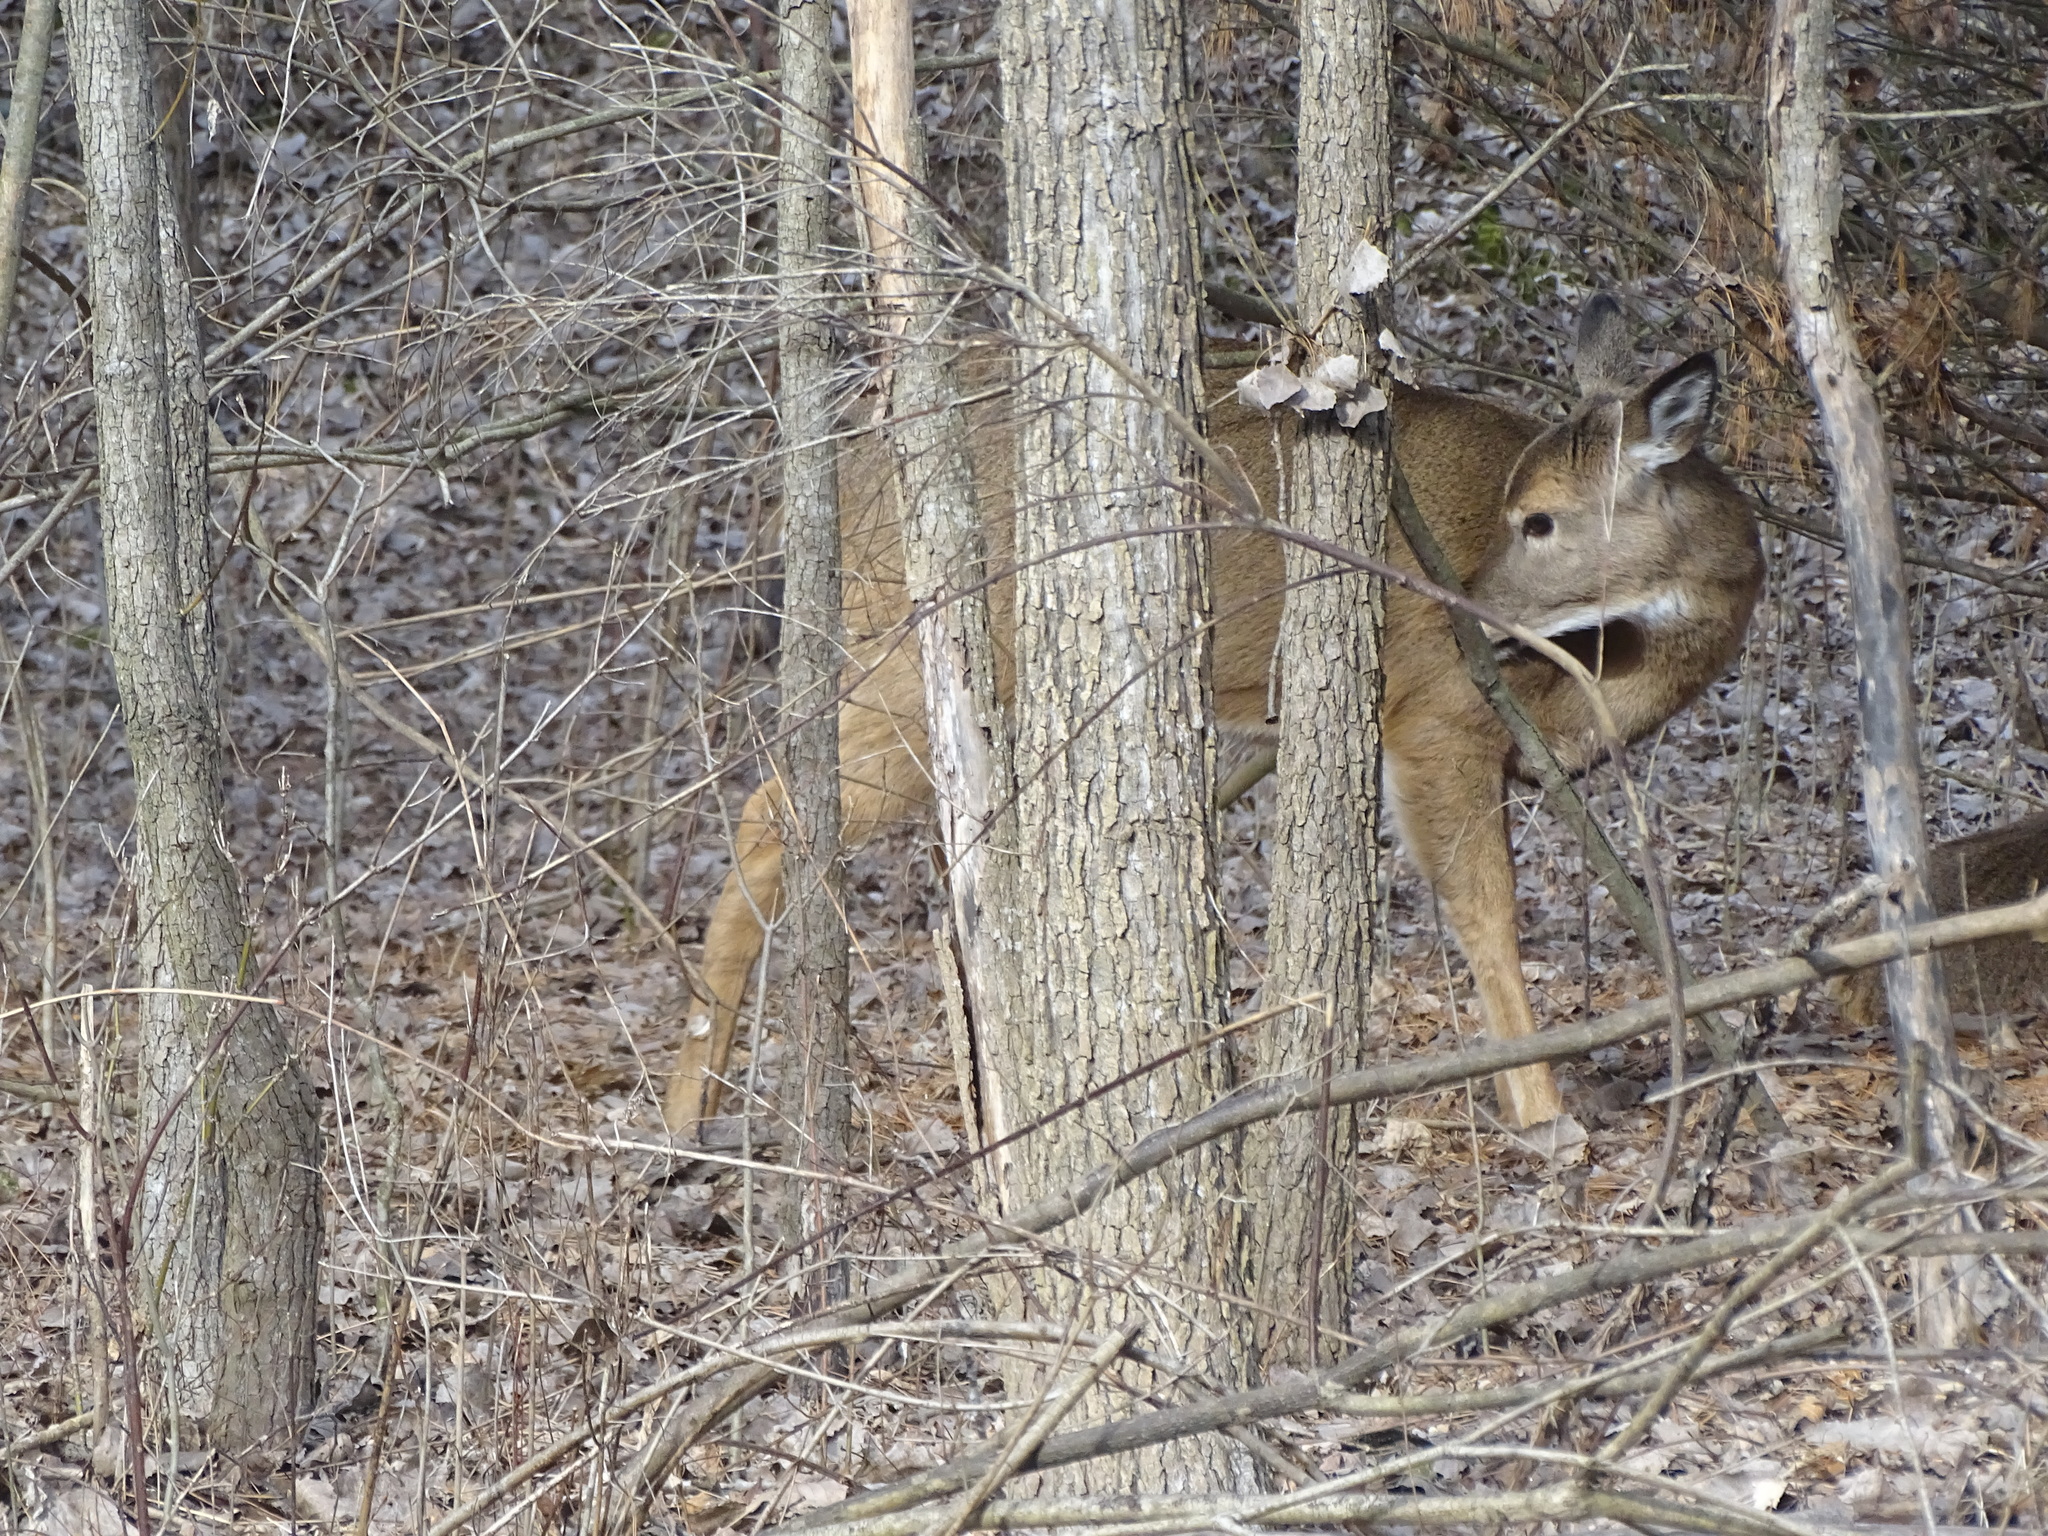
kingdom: Animalia
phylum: Chordata
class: Mammalia
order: Artiodactyla
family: Cervidae
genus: Odocoileus
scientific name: Odocoileus virginianus
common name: White-tailed deer
